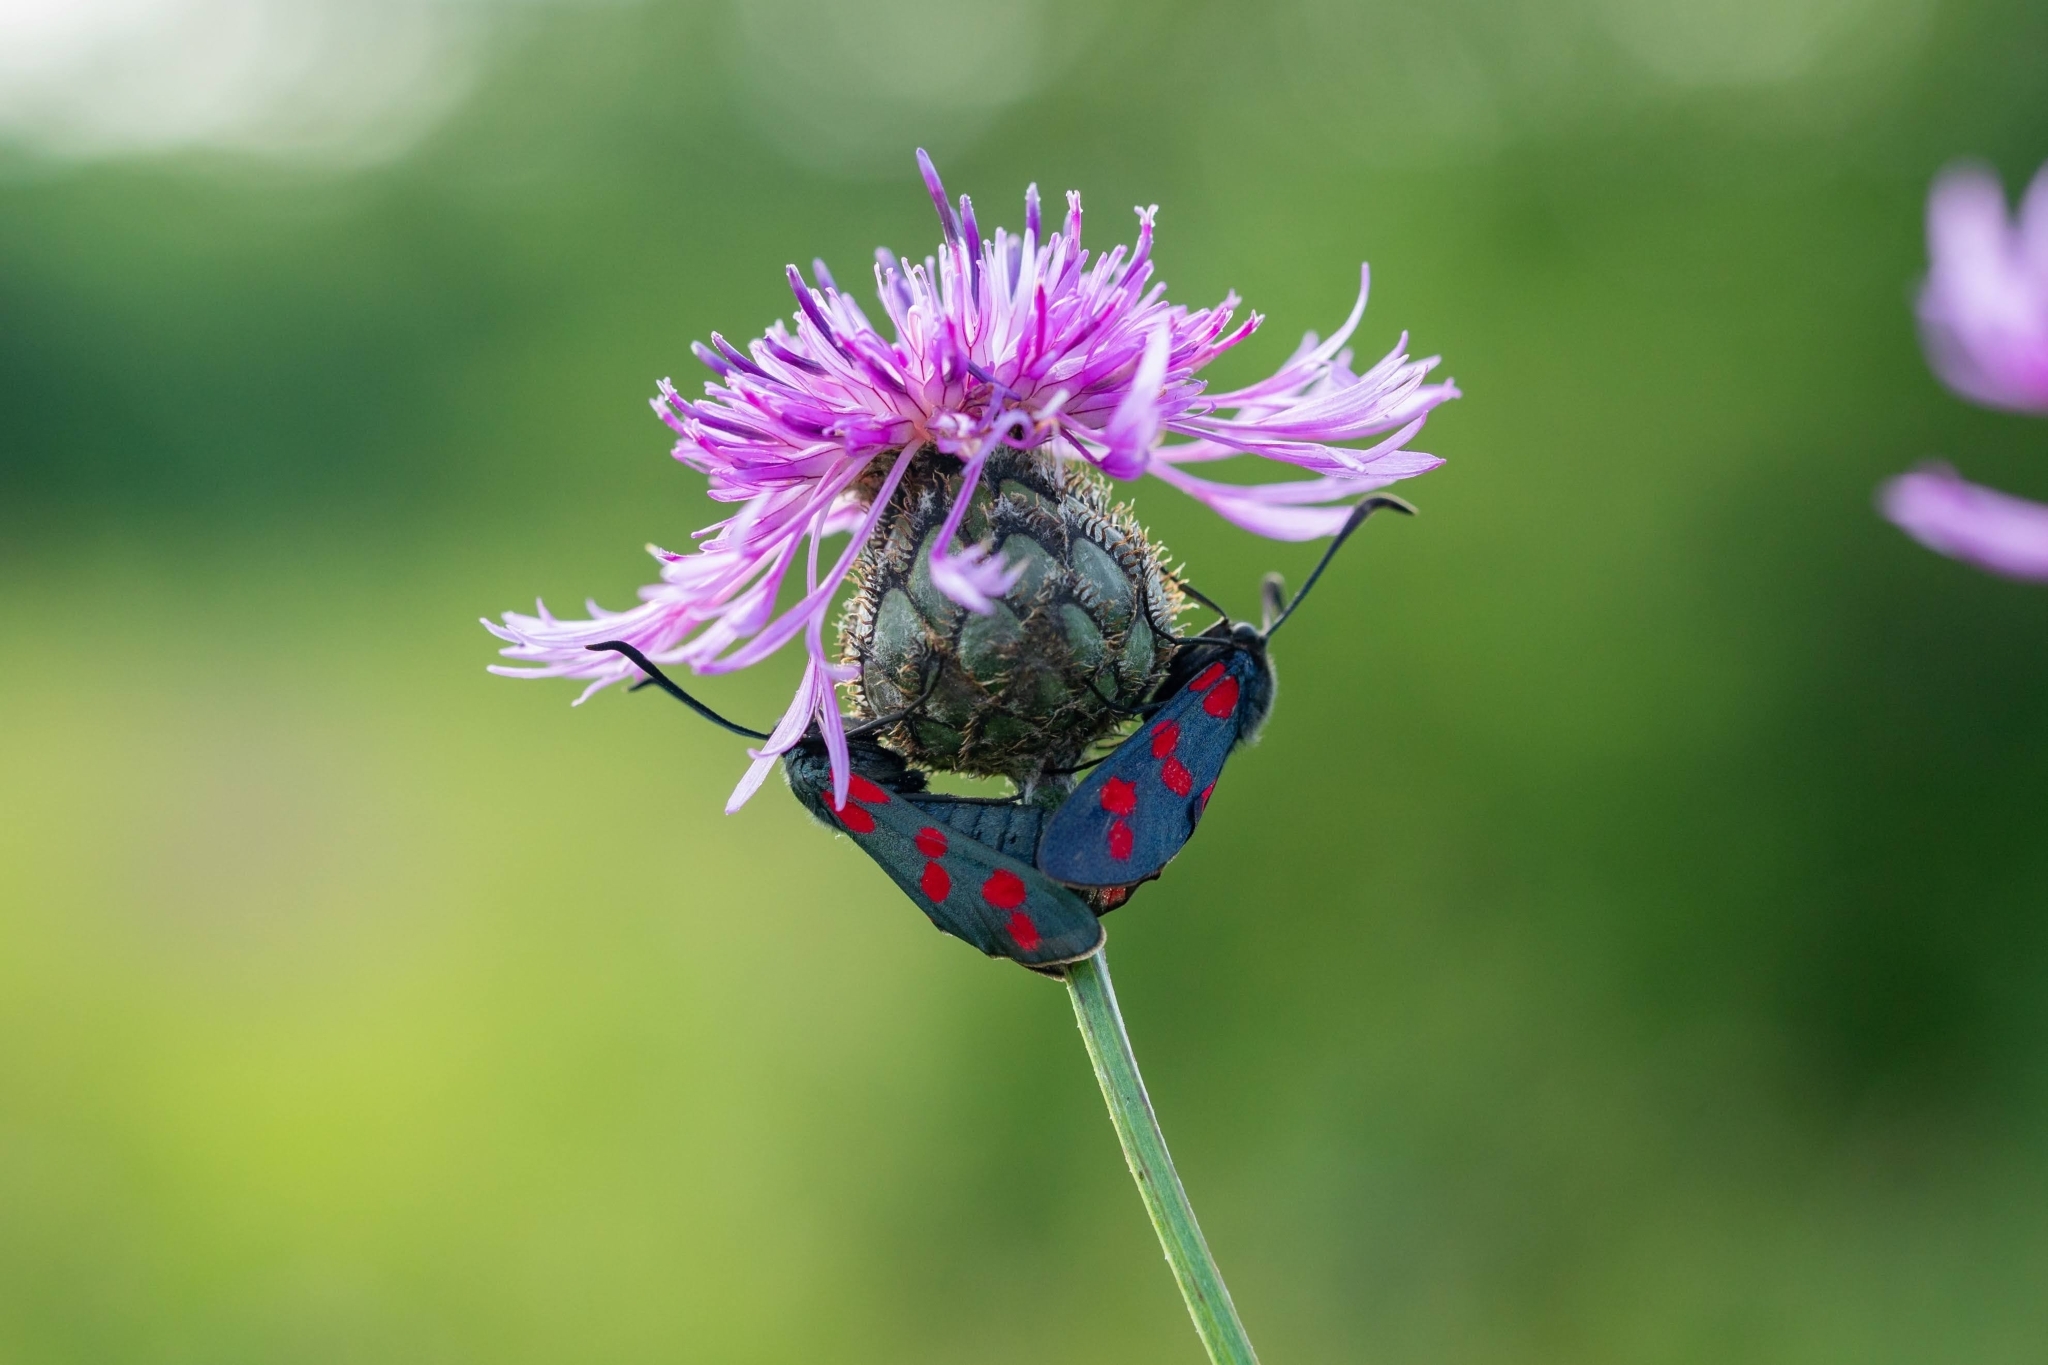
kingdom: Animalia
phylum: Arthropoda
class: Insecta
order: Lepidoptera
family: Zygaenidae
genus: Zygaena
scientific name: Zygaena filipendulae
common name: Six-spot burnet
